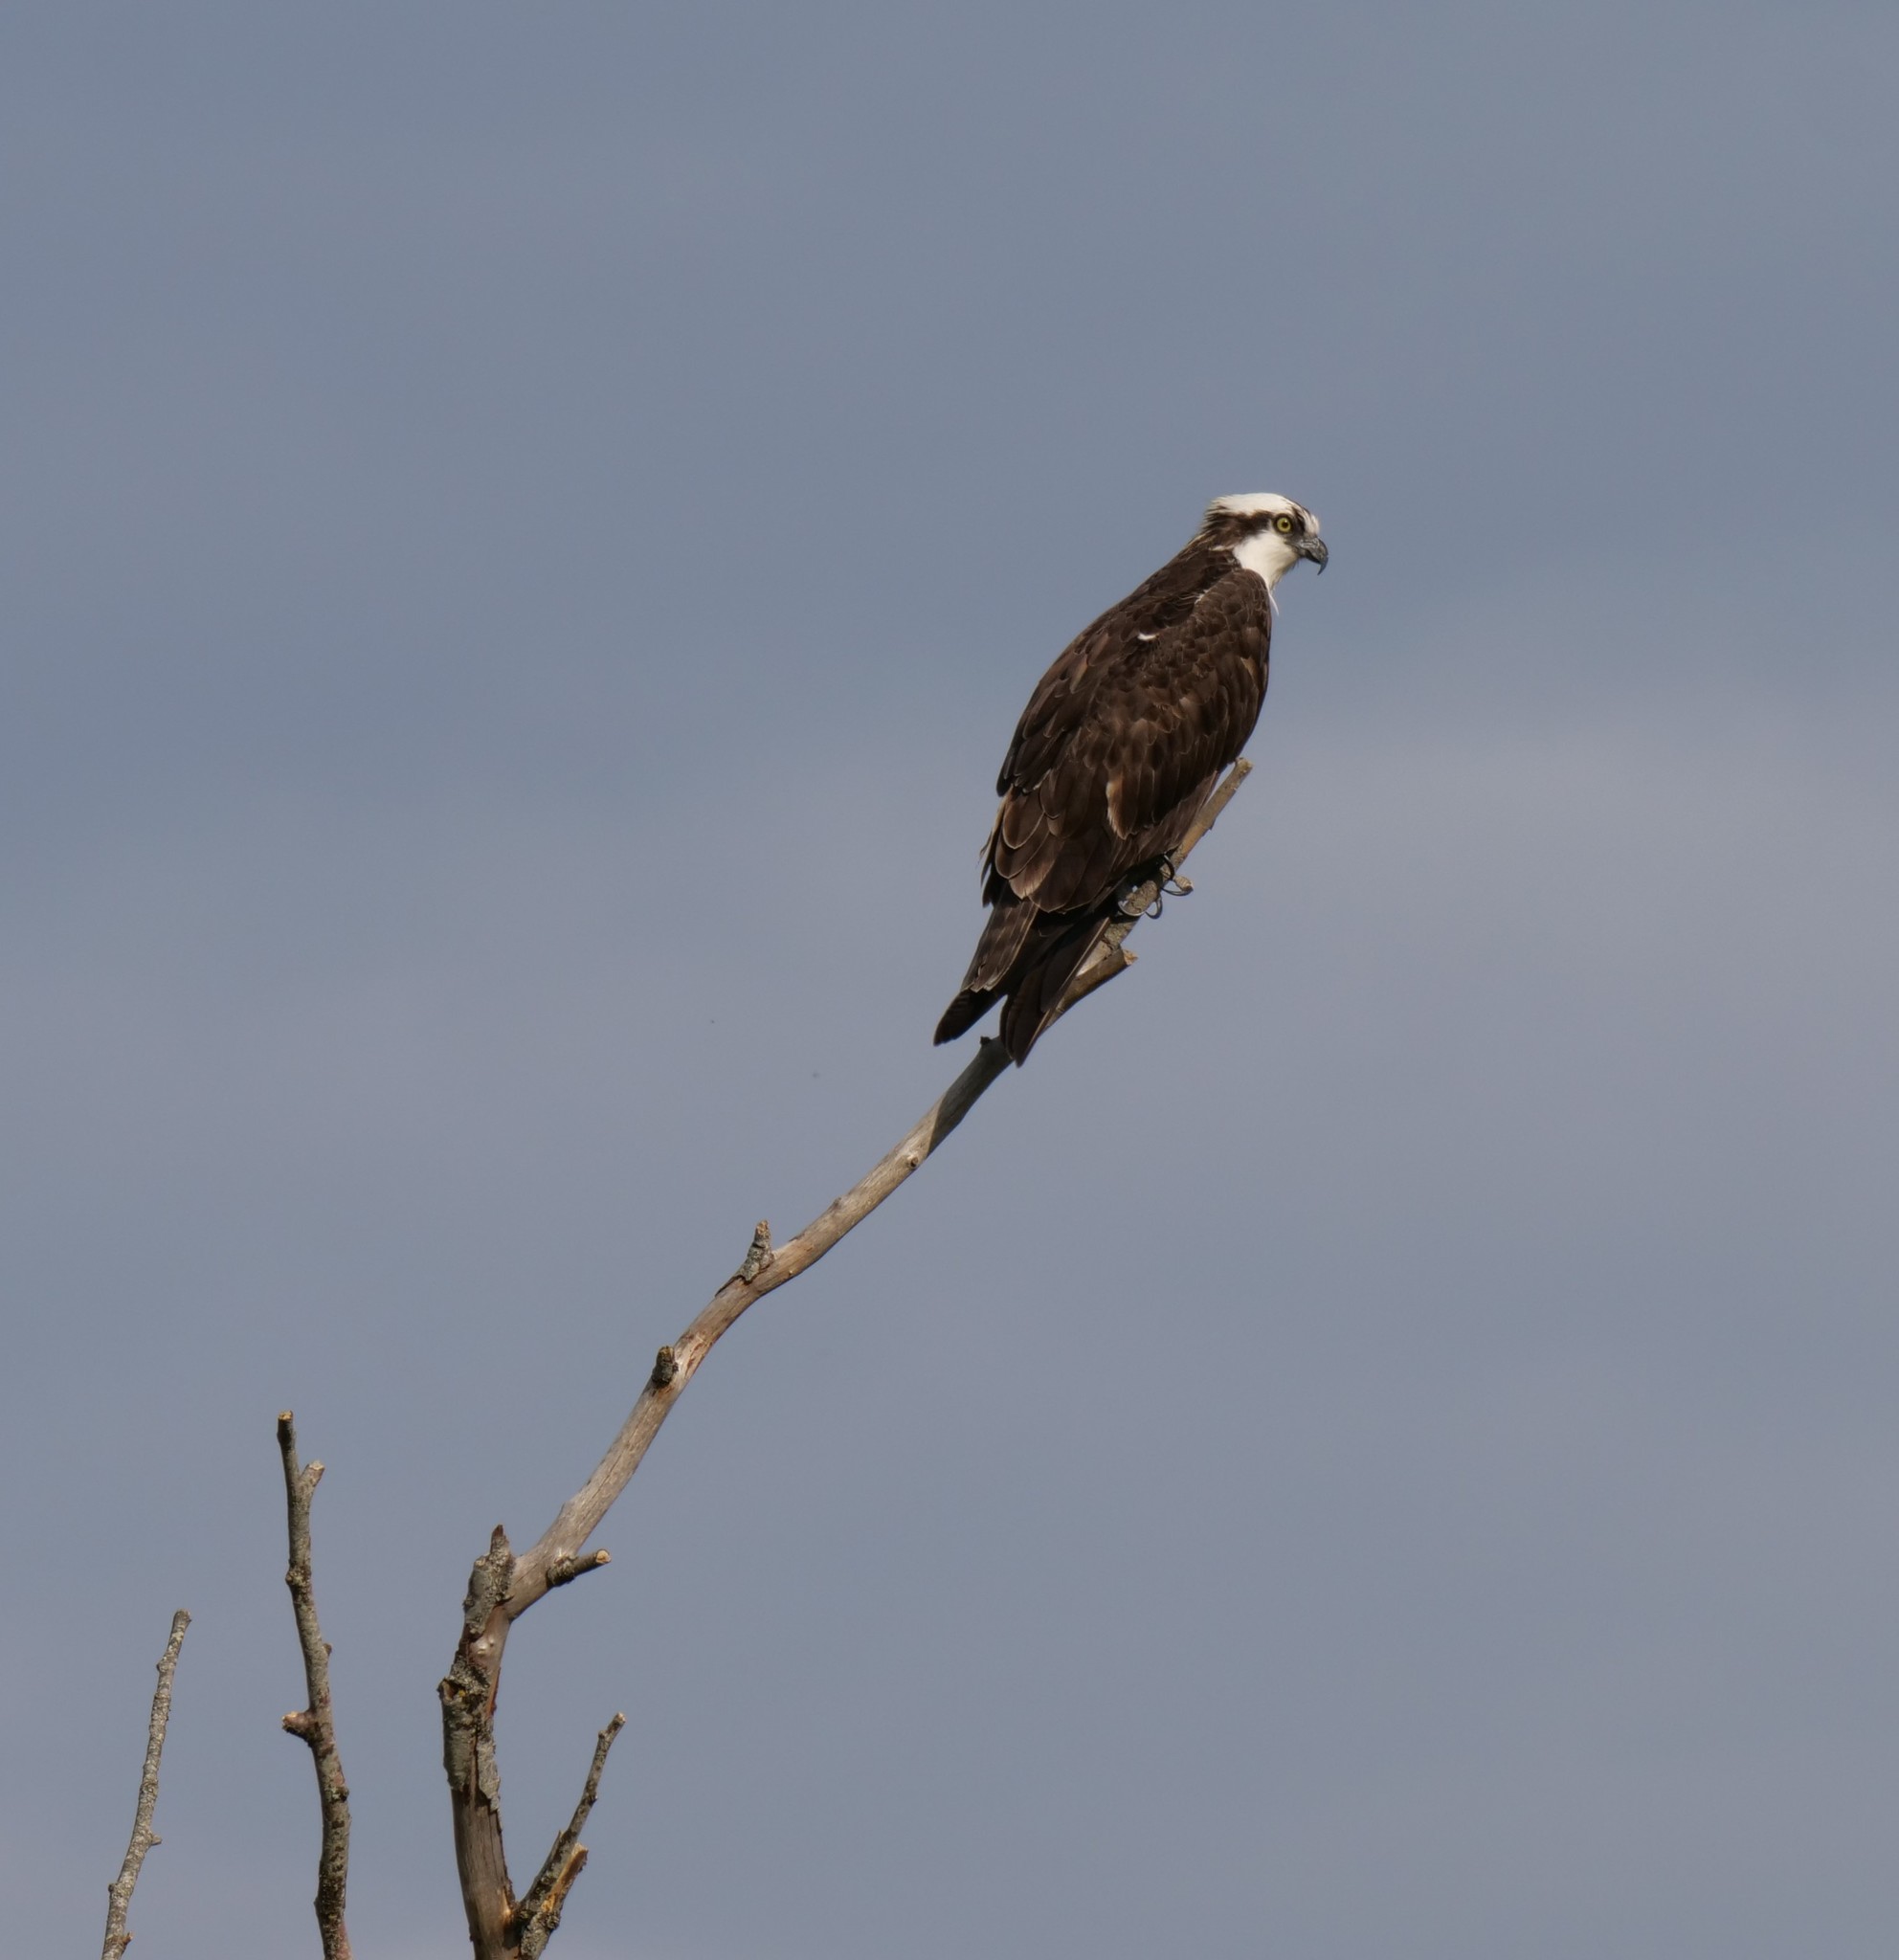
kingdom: Animalia
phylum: Chordata
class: Aves
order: Accipitriformes
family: Pandionidae
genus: Pandion
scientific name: Pandion haliaetus
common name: Osprey
